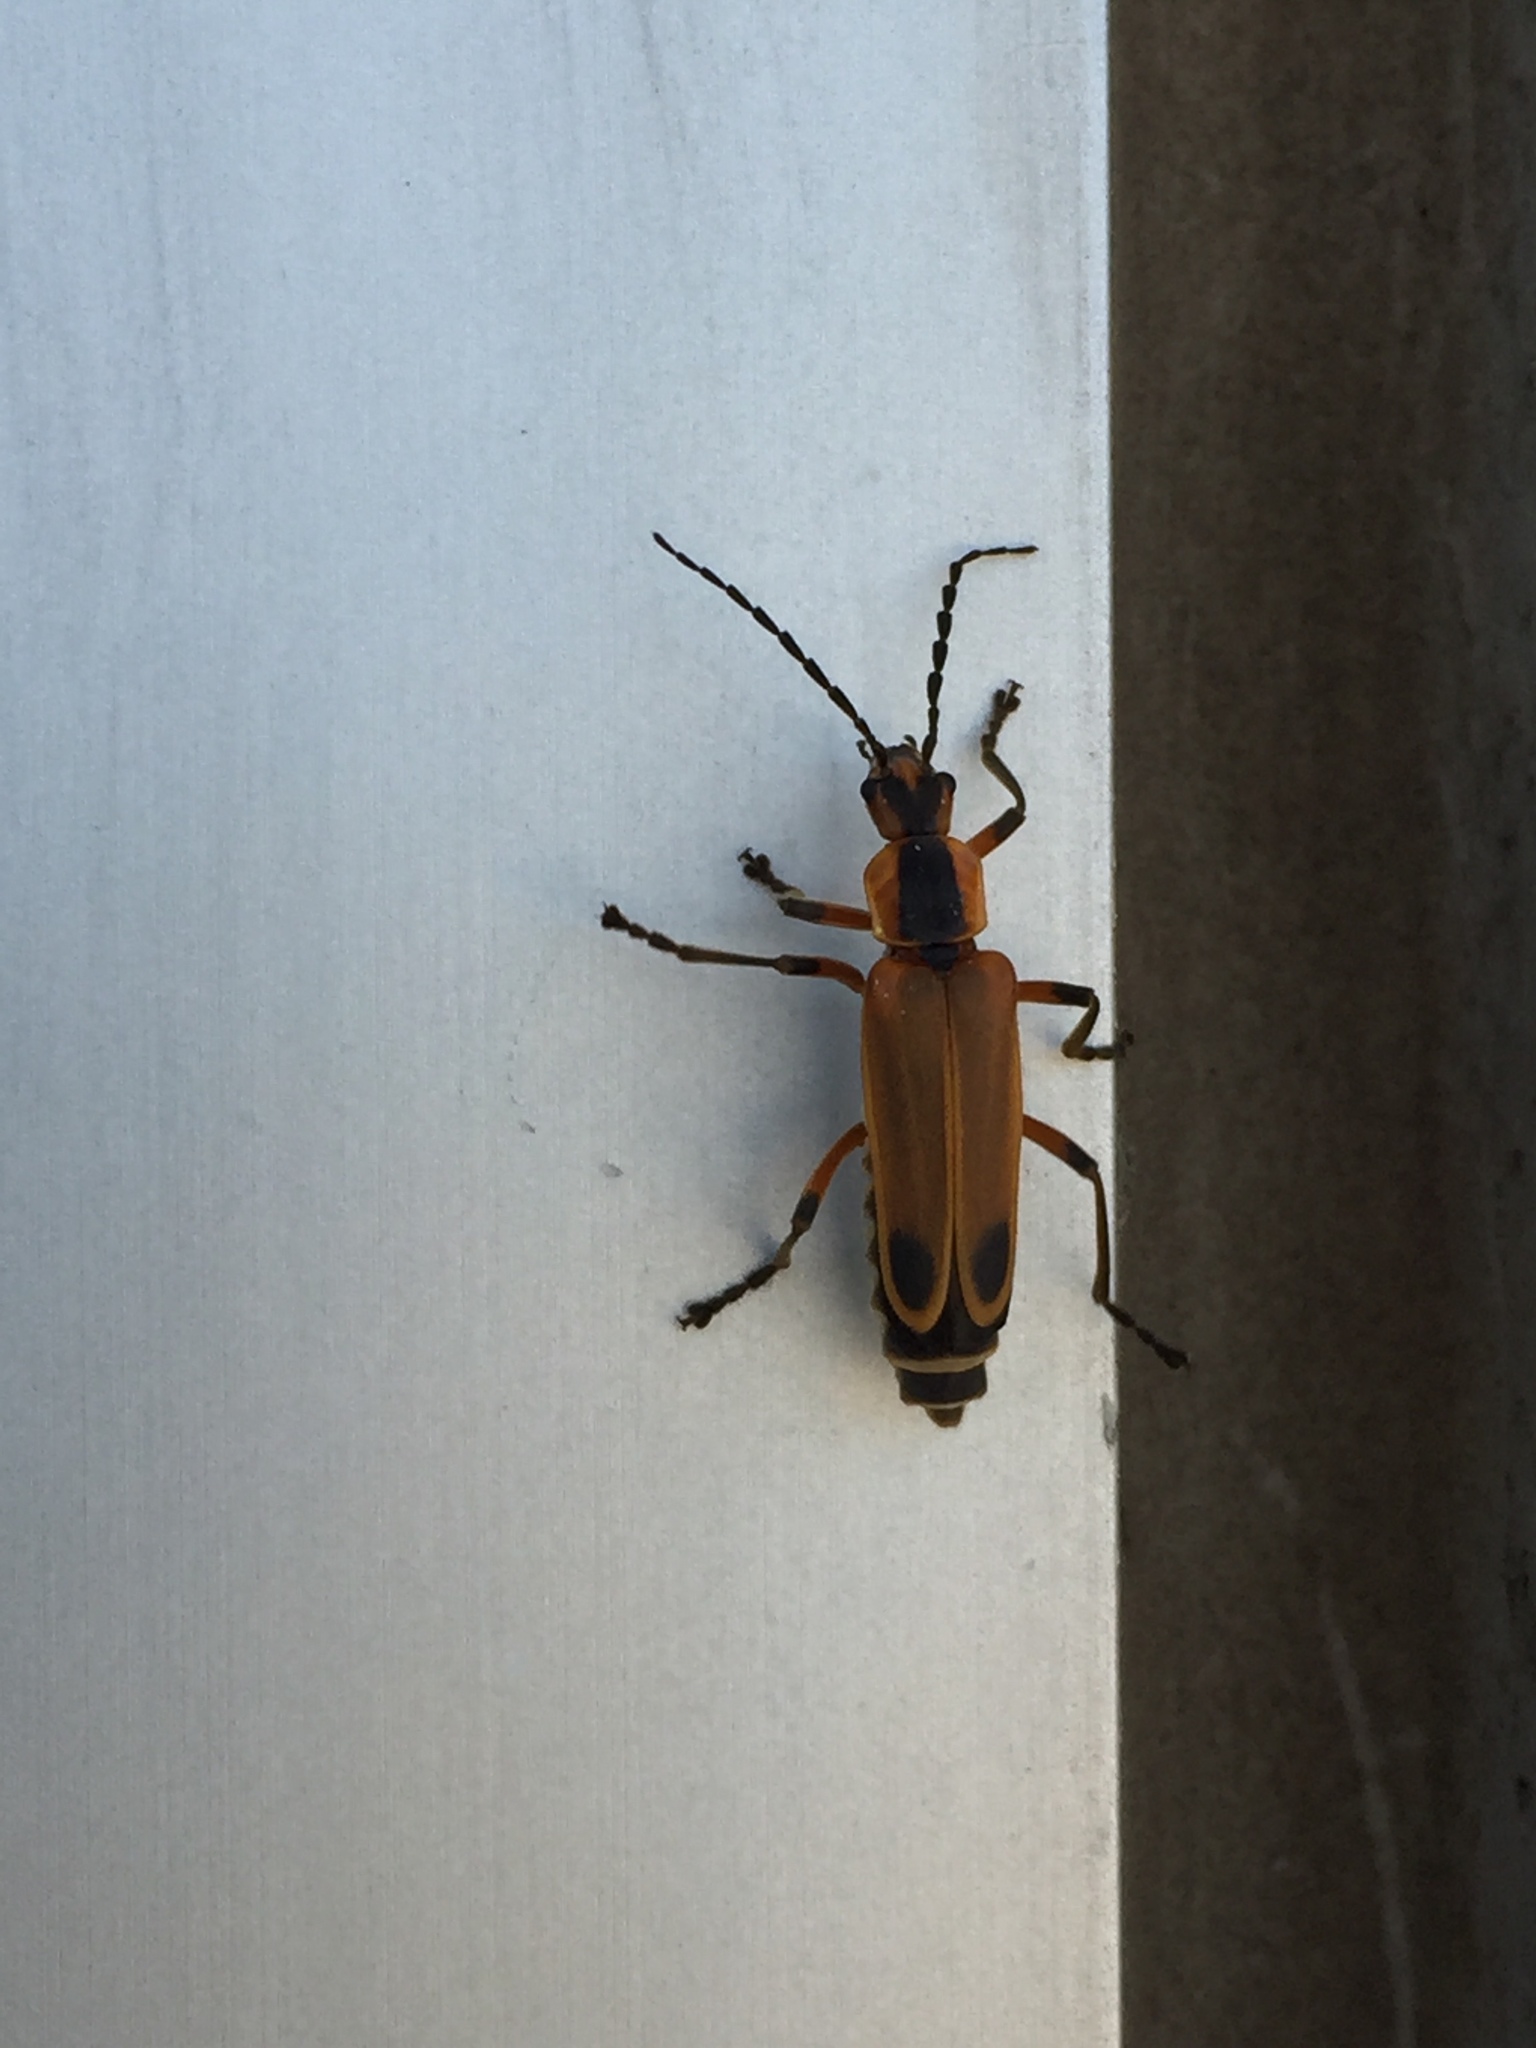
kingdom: Animalia
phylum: Arthropoda
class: Insecta
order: Coleoptera
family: Cantharidae
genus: Chauliognathus
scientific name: Chauliognathus marginatus
